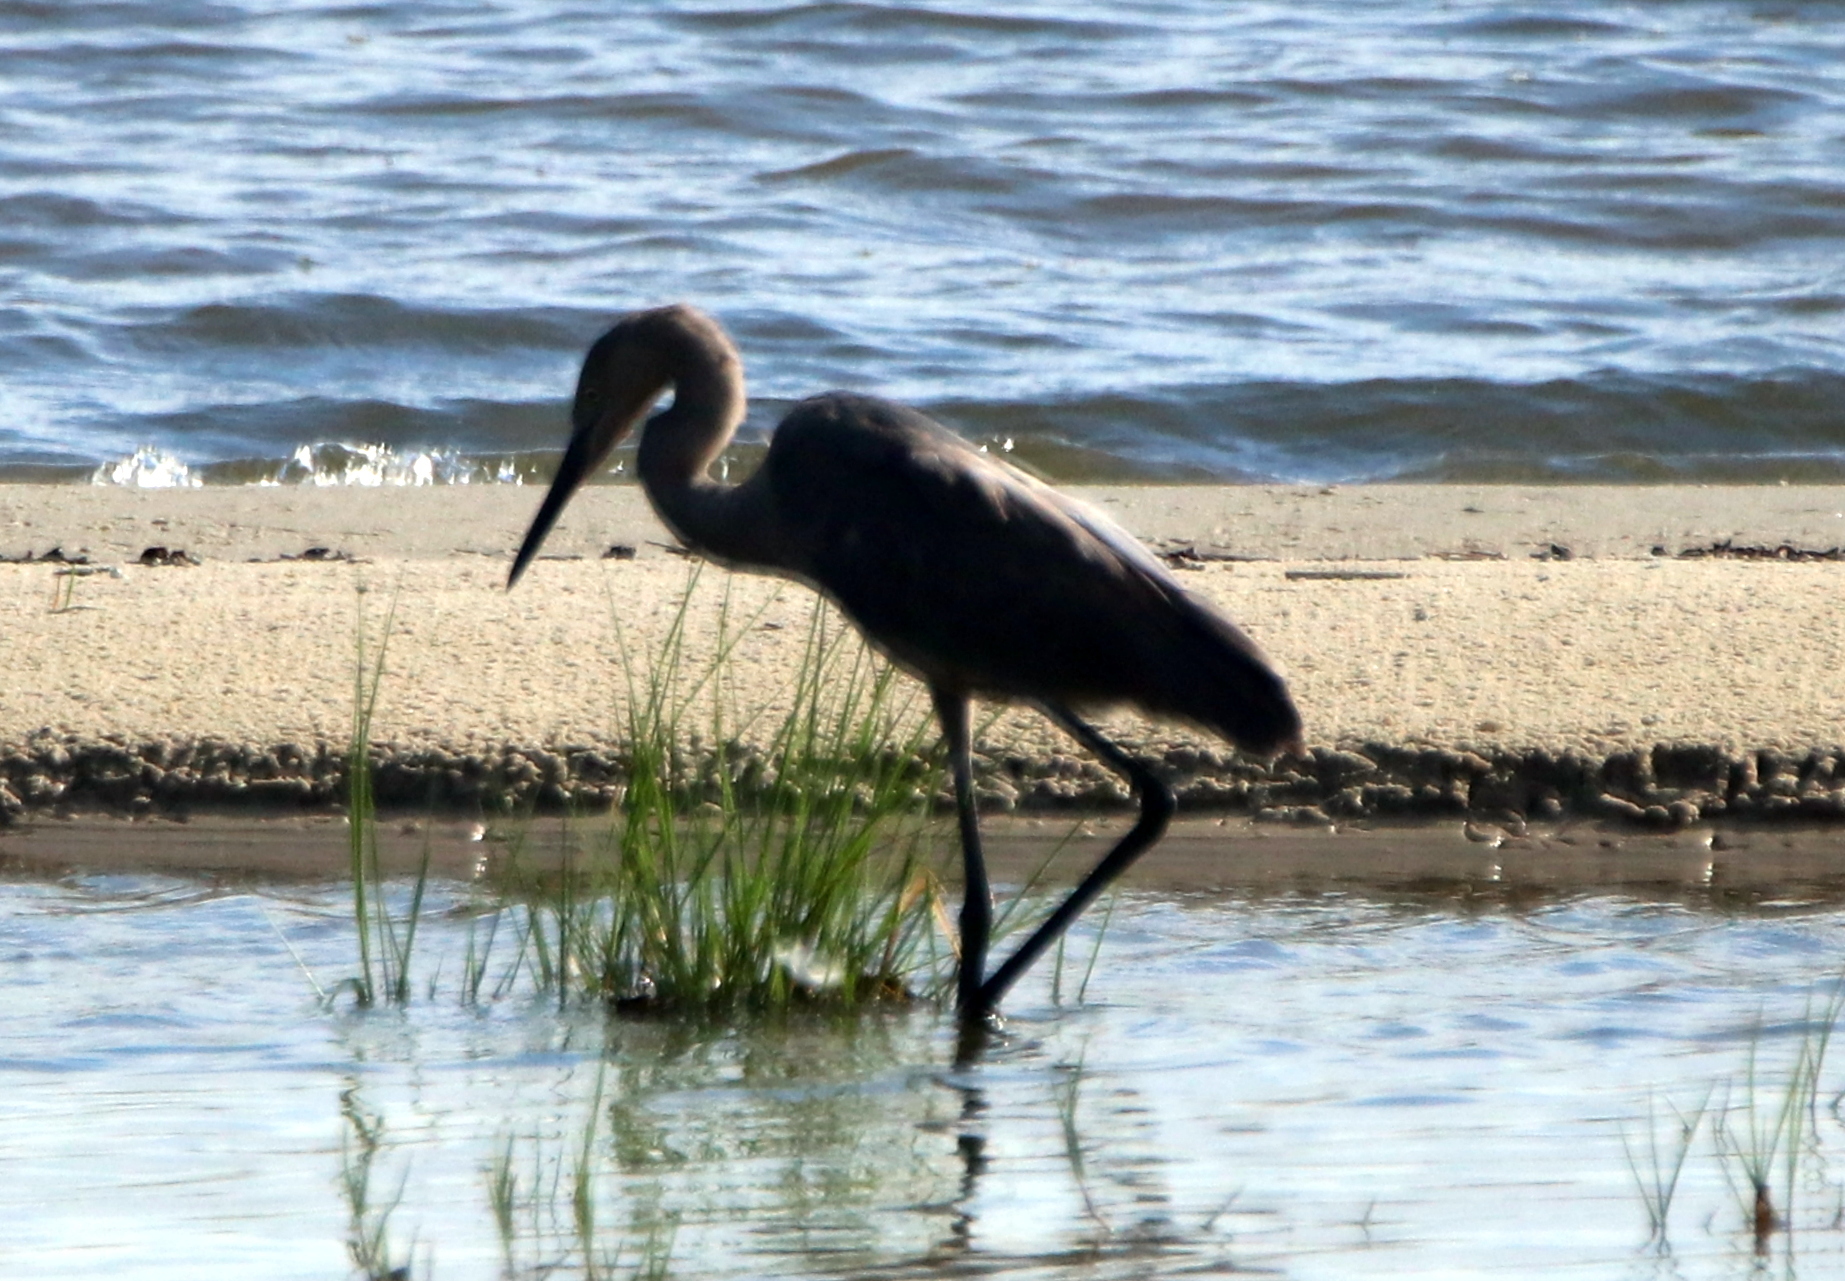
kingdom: Animalia
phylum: Chordata
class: Aves
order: Pelecaniformes
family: Ardeidae
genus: Ardea
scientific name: Ardea herodias
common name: Great blue heron
